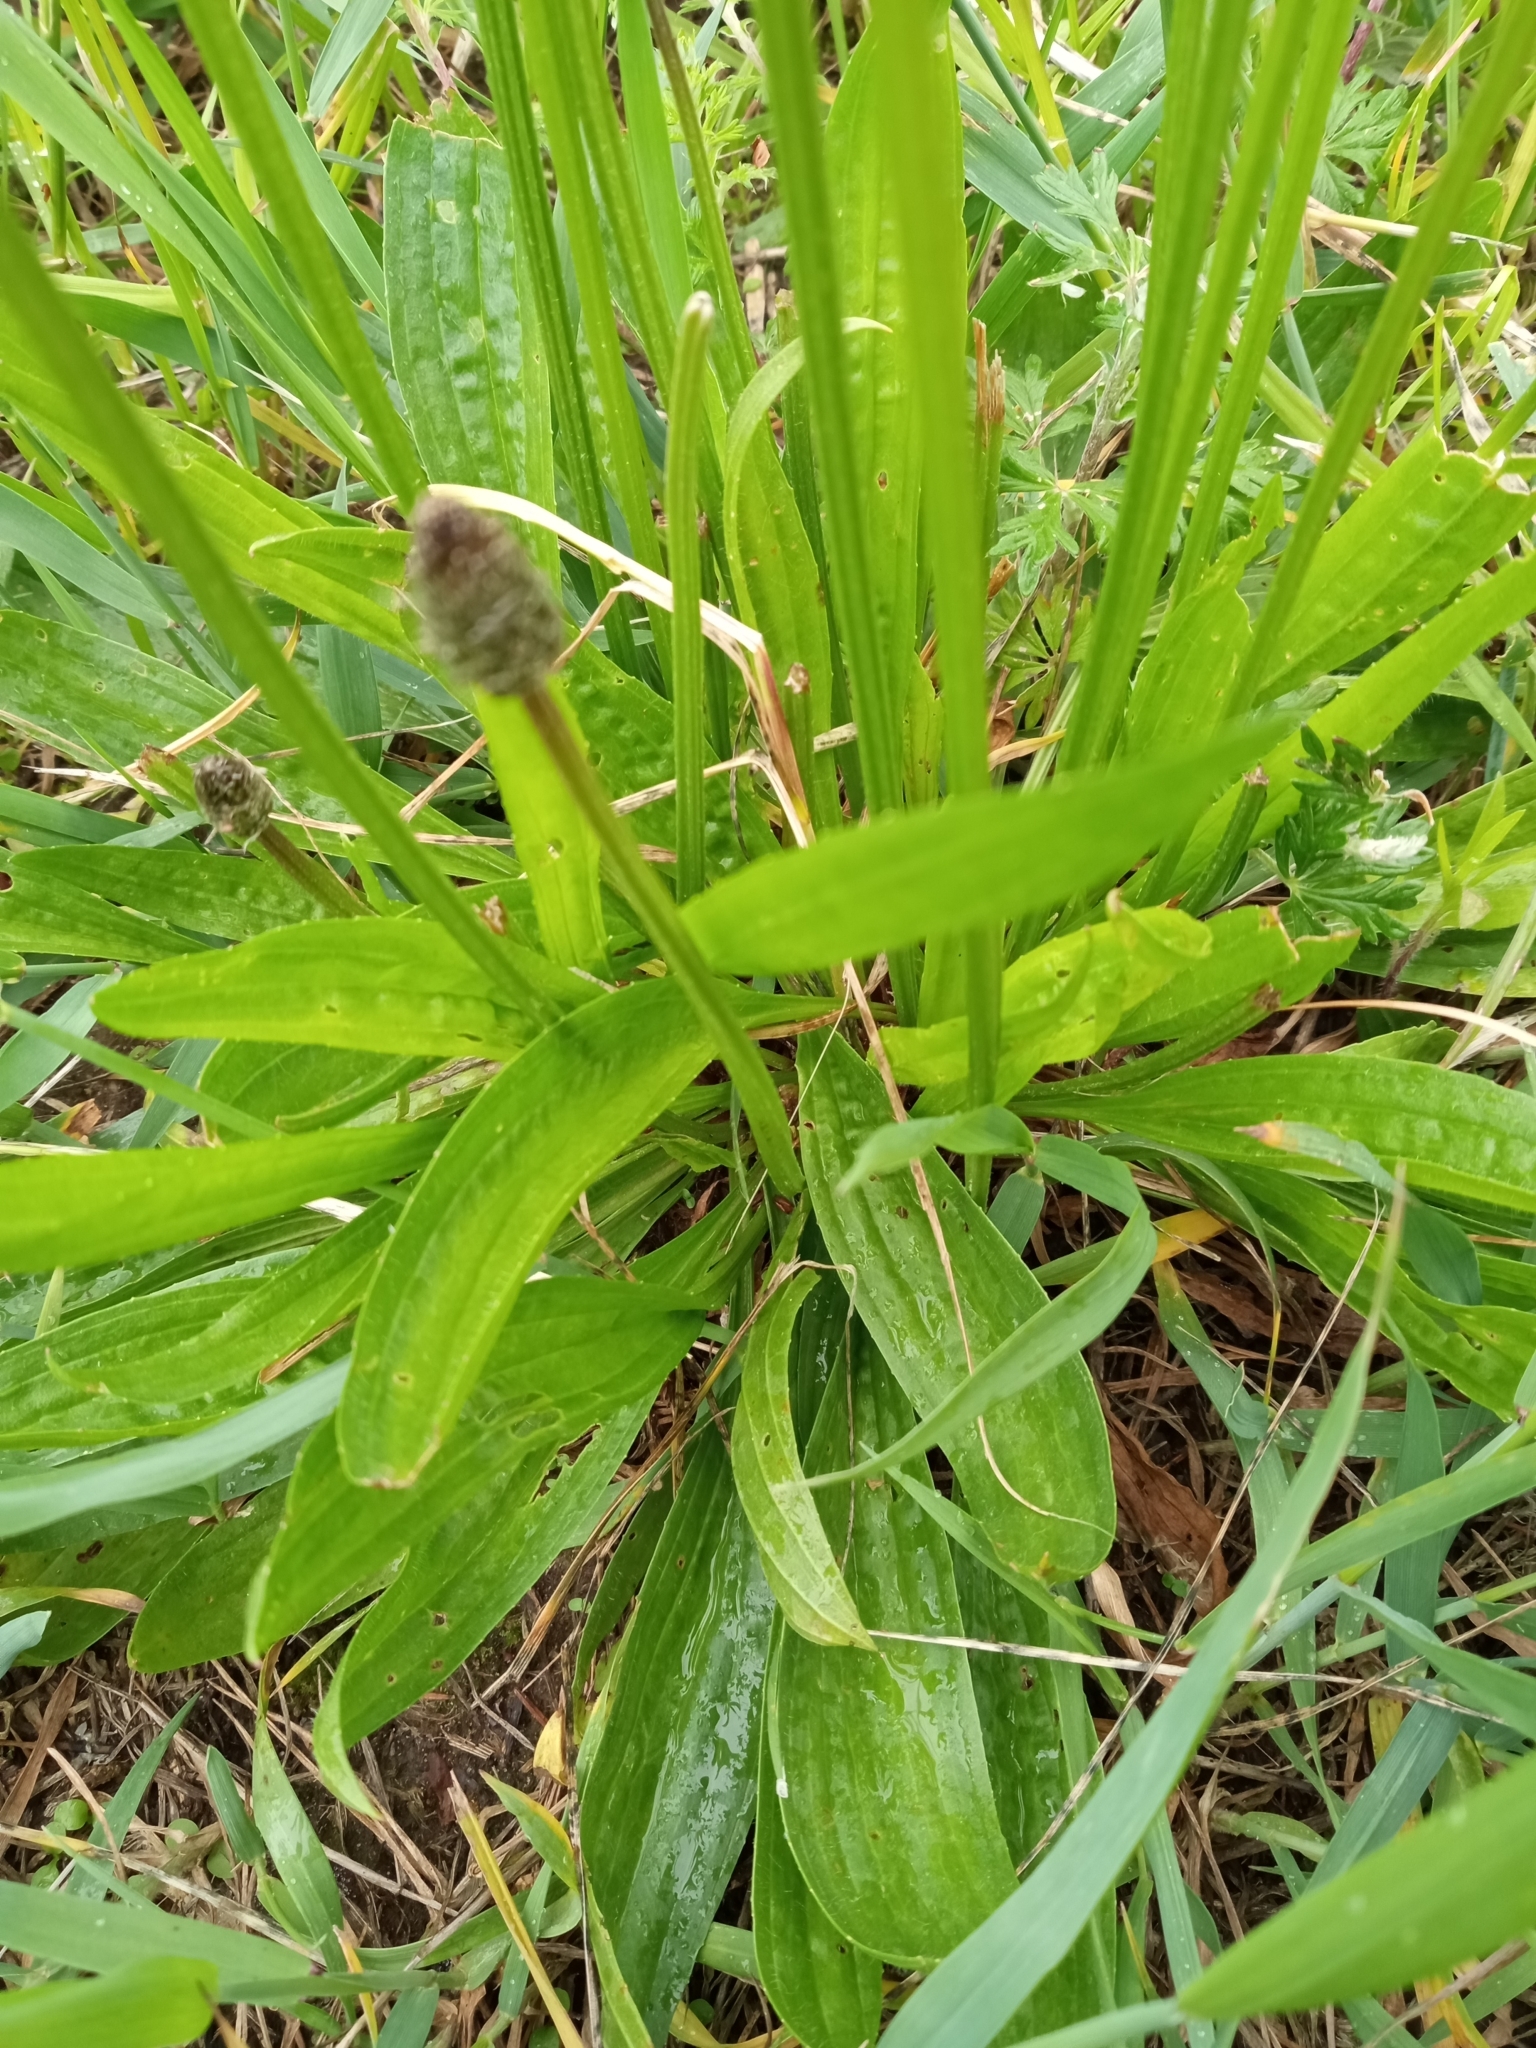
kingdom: Plantae
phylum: Tracheophyta
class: Magnoliopsida
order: Lamiales
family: Plantaginaceae
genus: Plantago
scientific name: Plantago lanceolata
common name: Ribwort plantain
